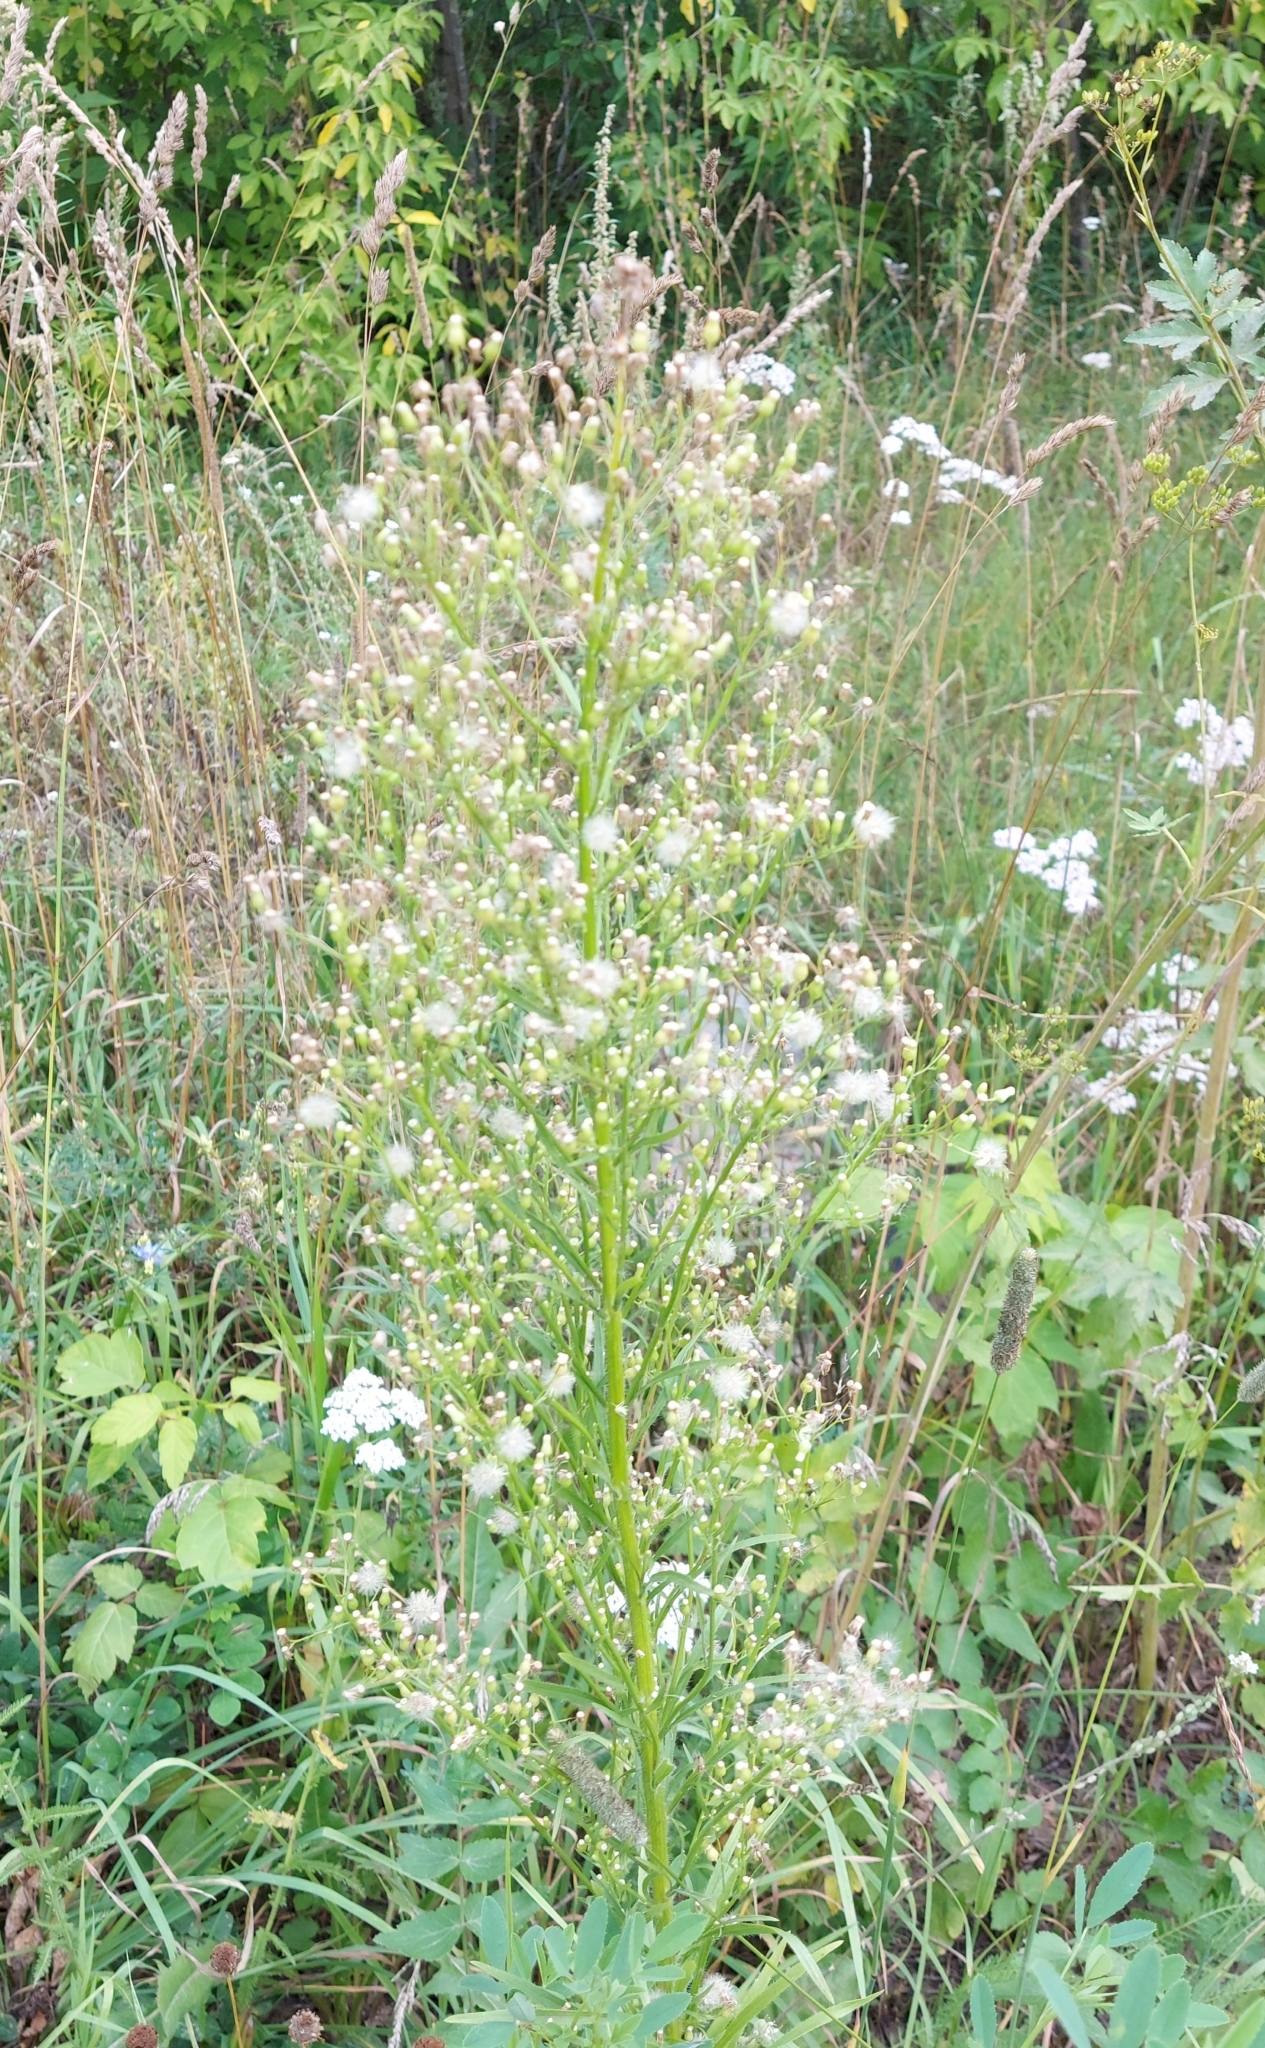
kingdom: Plantae
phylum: Tracheophyta
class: Magnoliopsida
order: Asterales
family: Asteraceae
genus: Erigeron
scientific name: Erigeron canadensis
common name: Canadian fleabane
